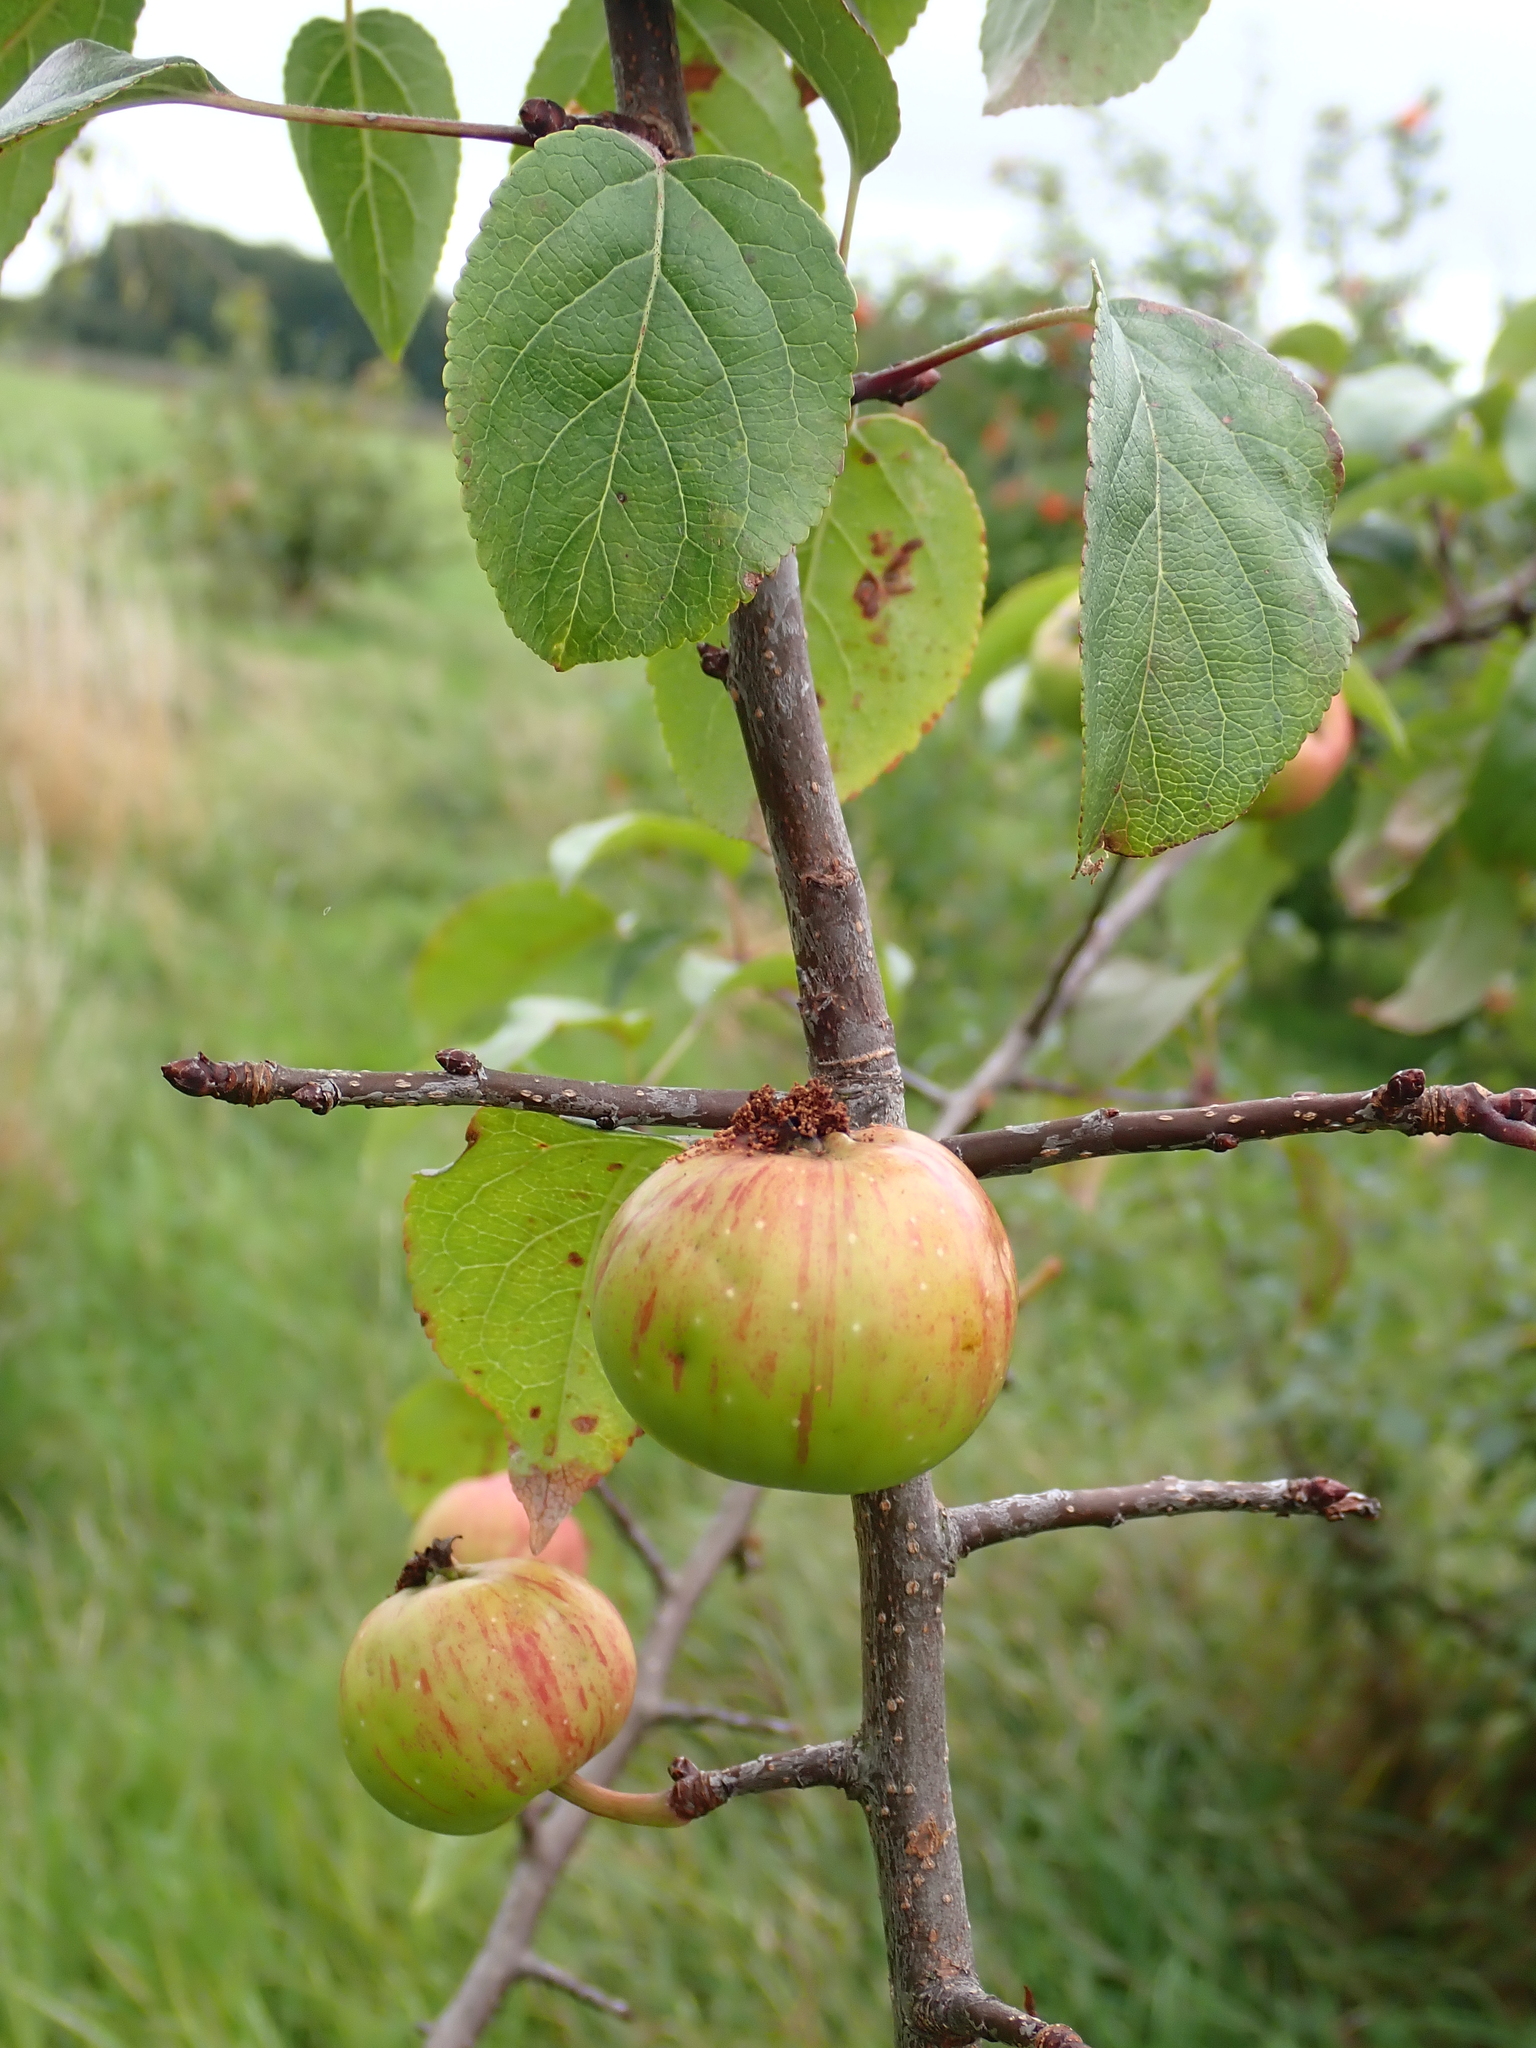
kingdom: Plantae
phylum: Tracheophyta
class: Magnoliopsida
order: Rosales
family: Rosaceae
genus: Malus
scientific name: Malus domestica
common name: Apple
